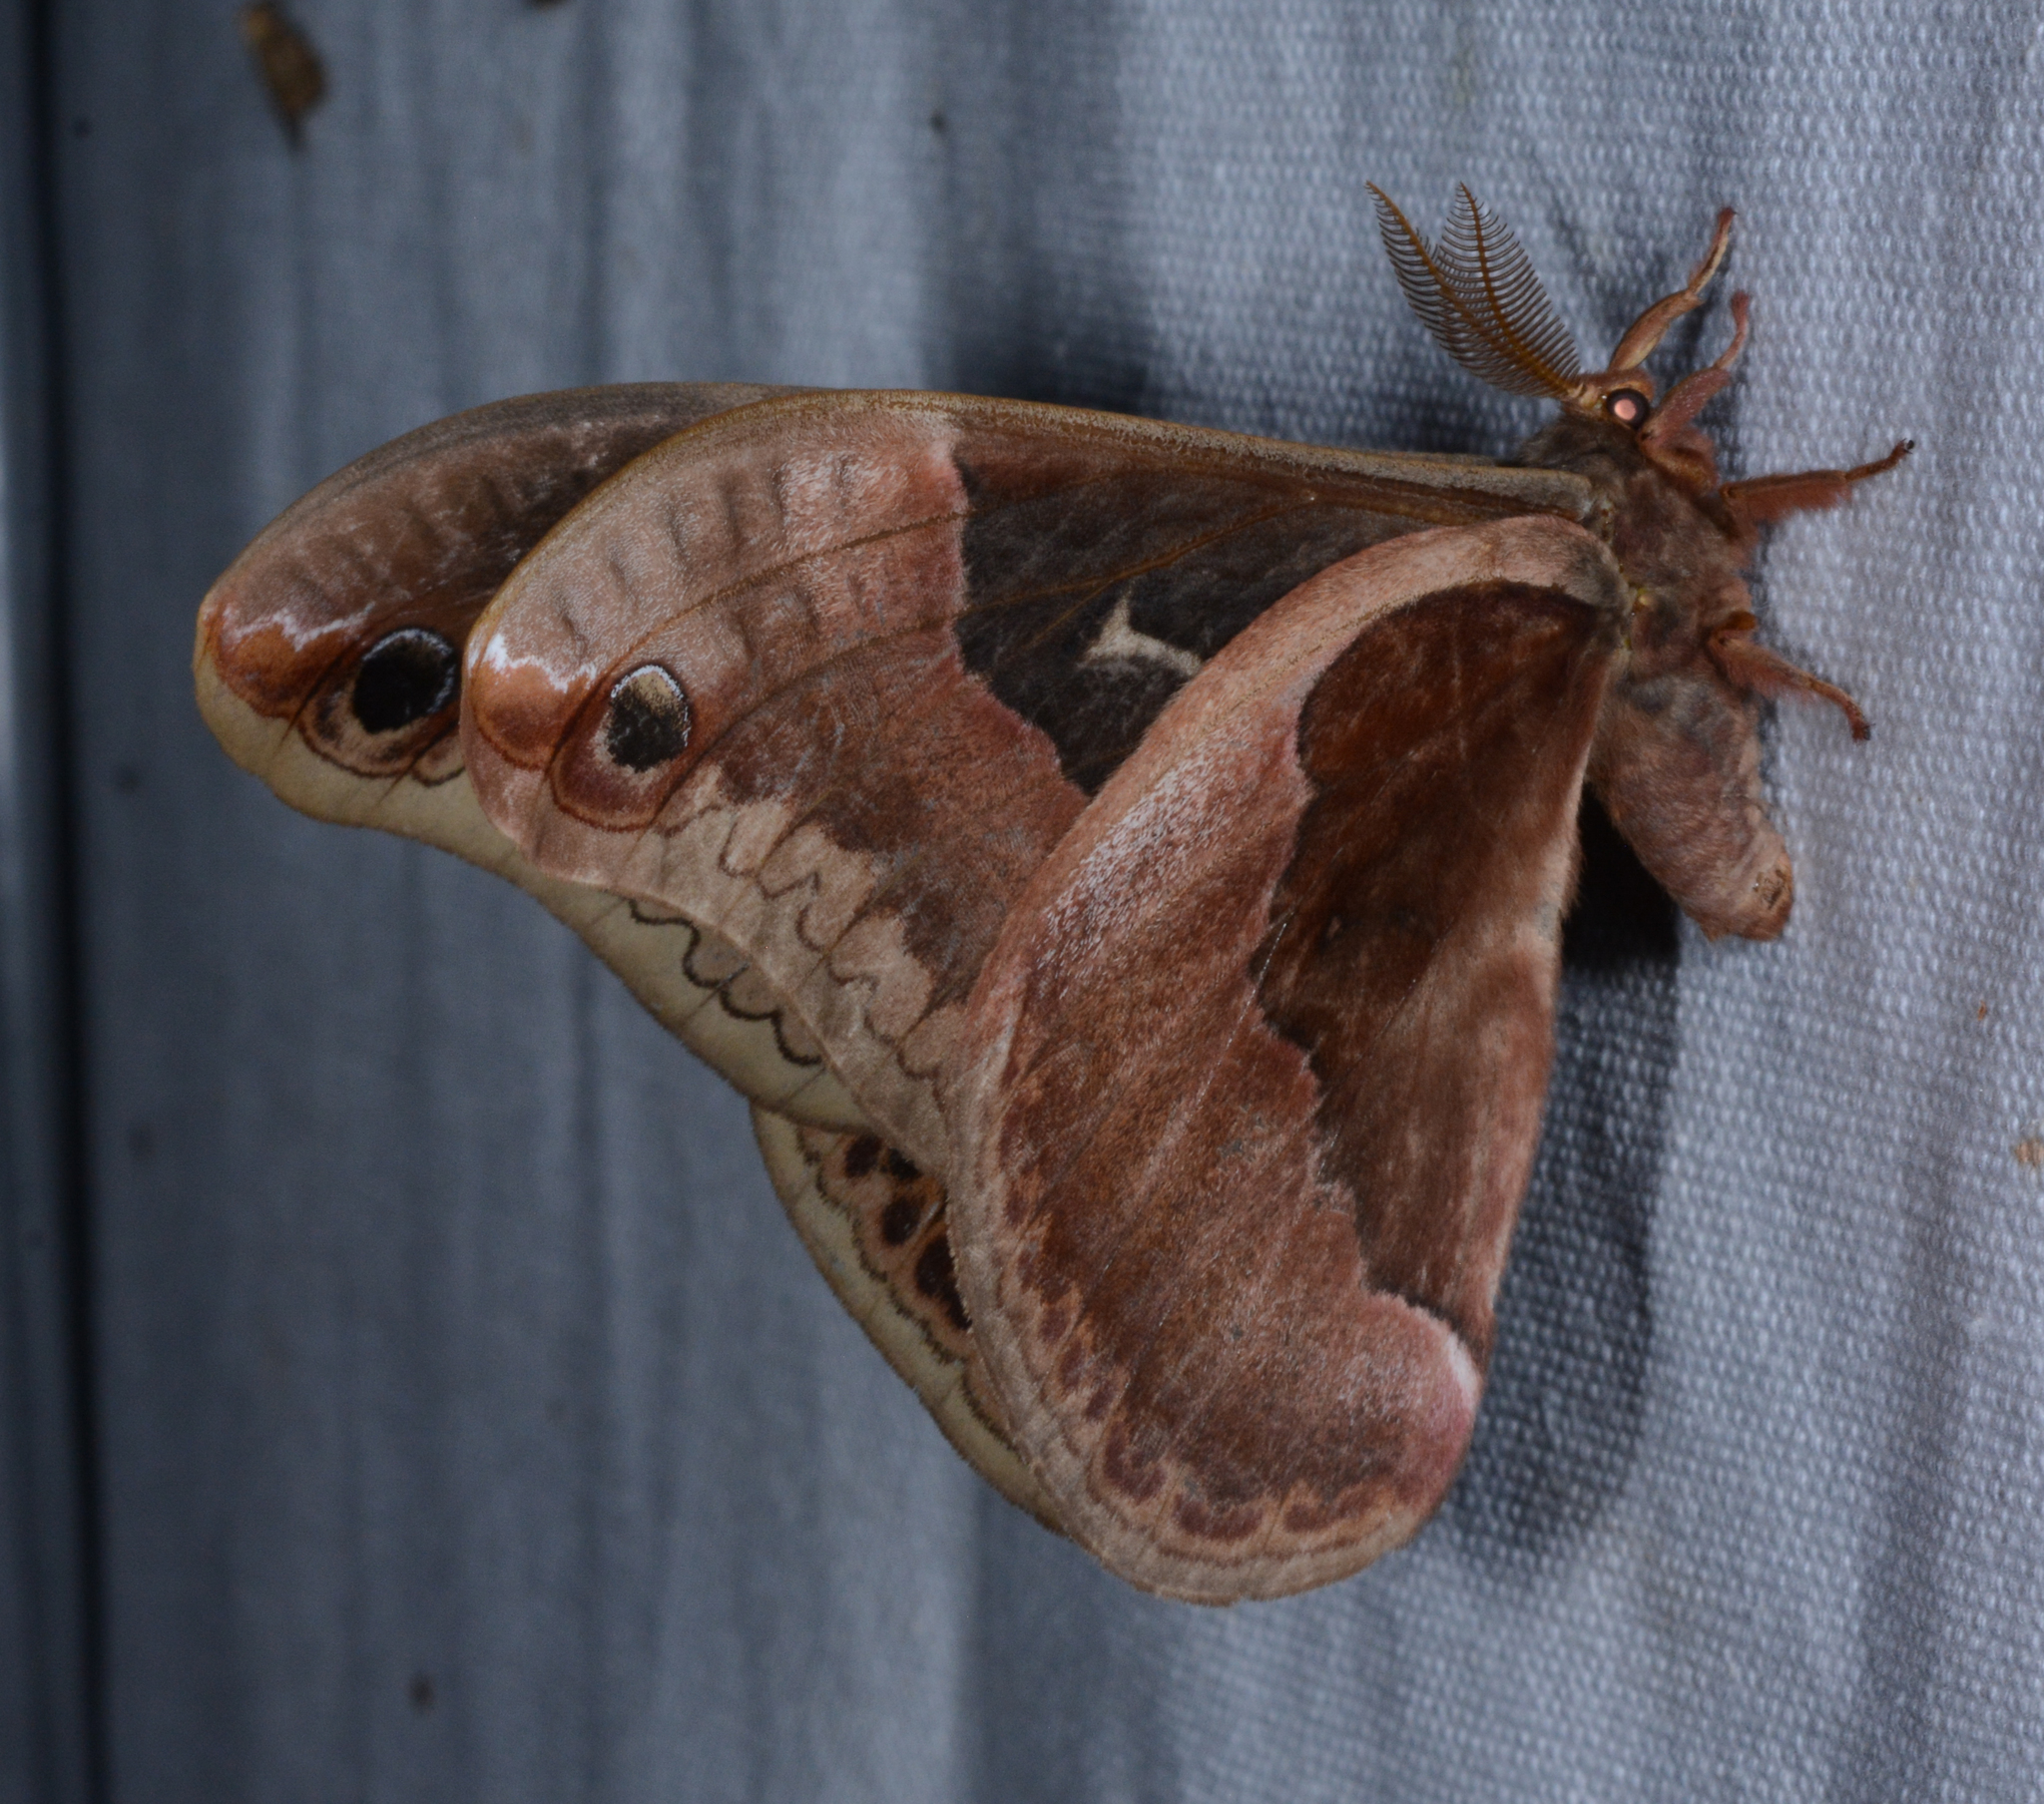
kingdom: Animalia
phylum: Arthropoda
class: Insecta
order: Lepidoptera
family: Saturniidae
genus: Callosamia
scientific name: Callosamia angulifera
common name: Tulip tree silkmoth
